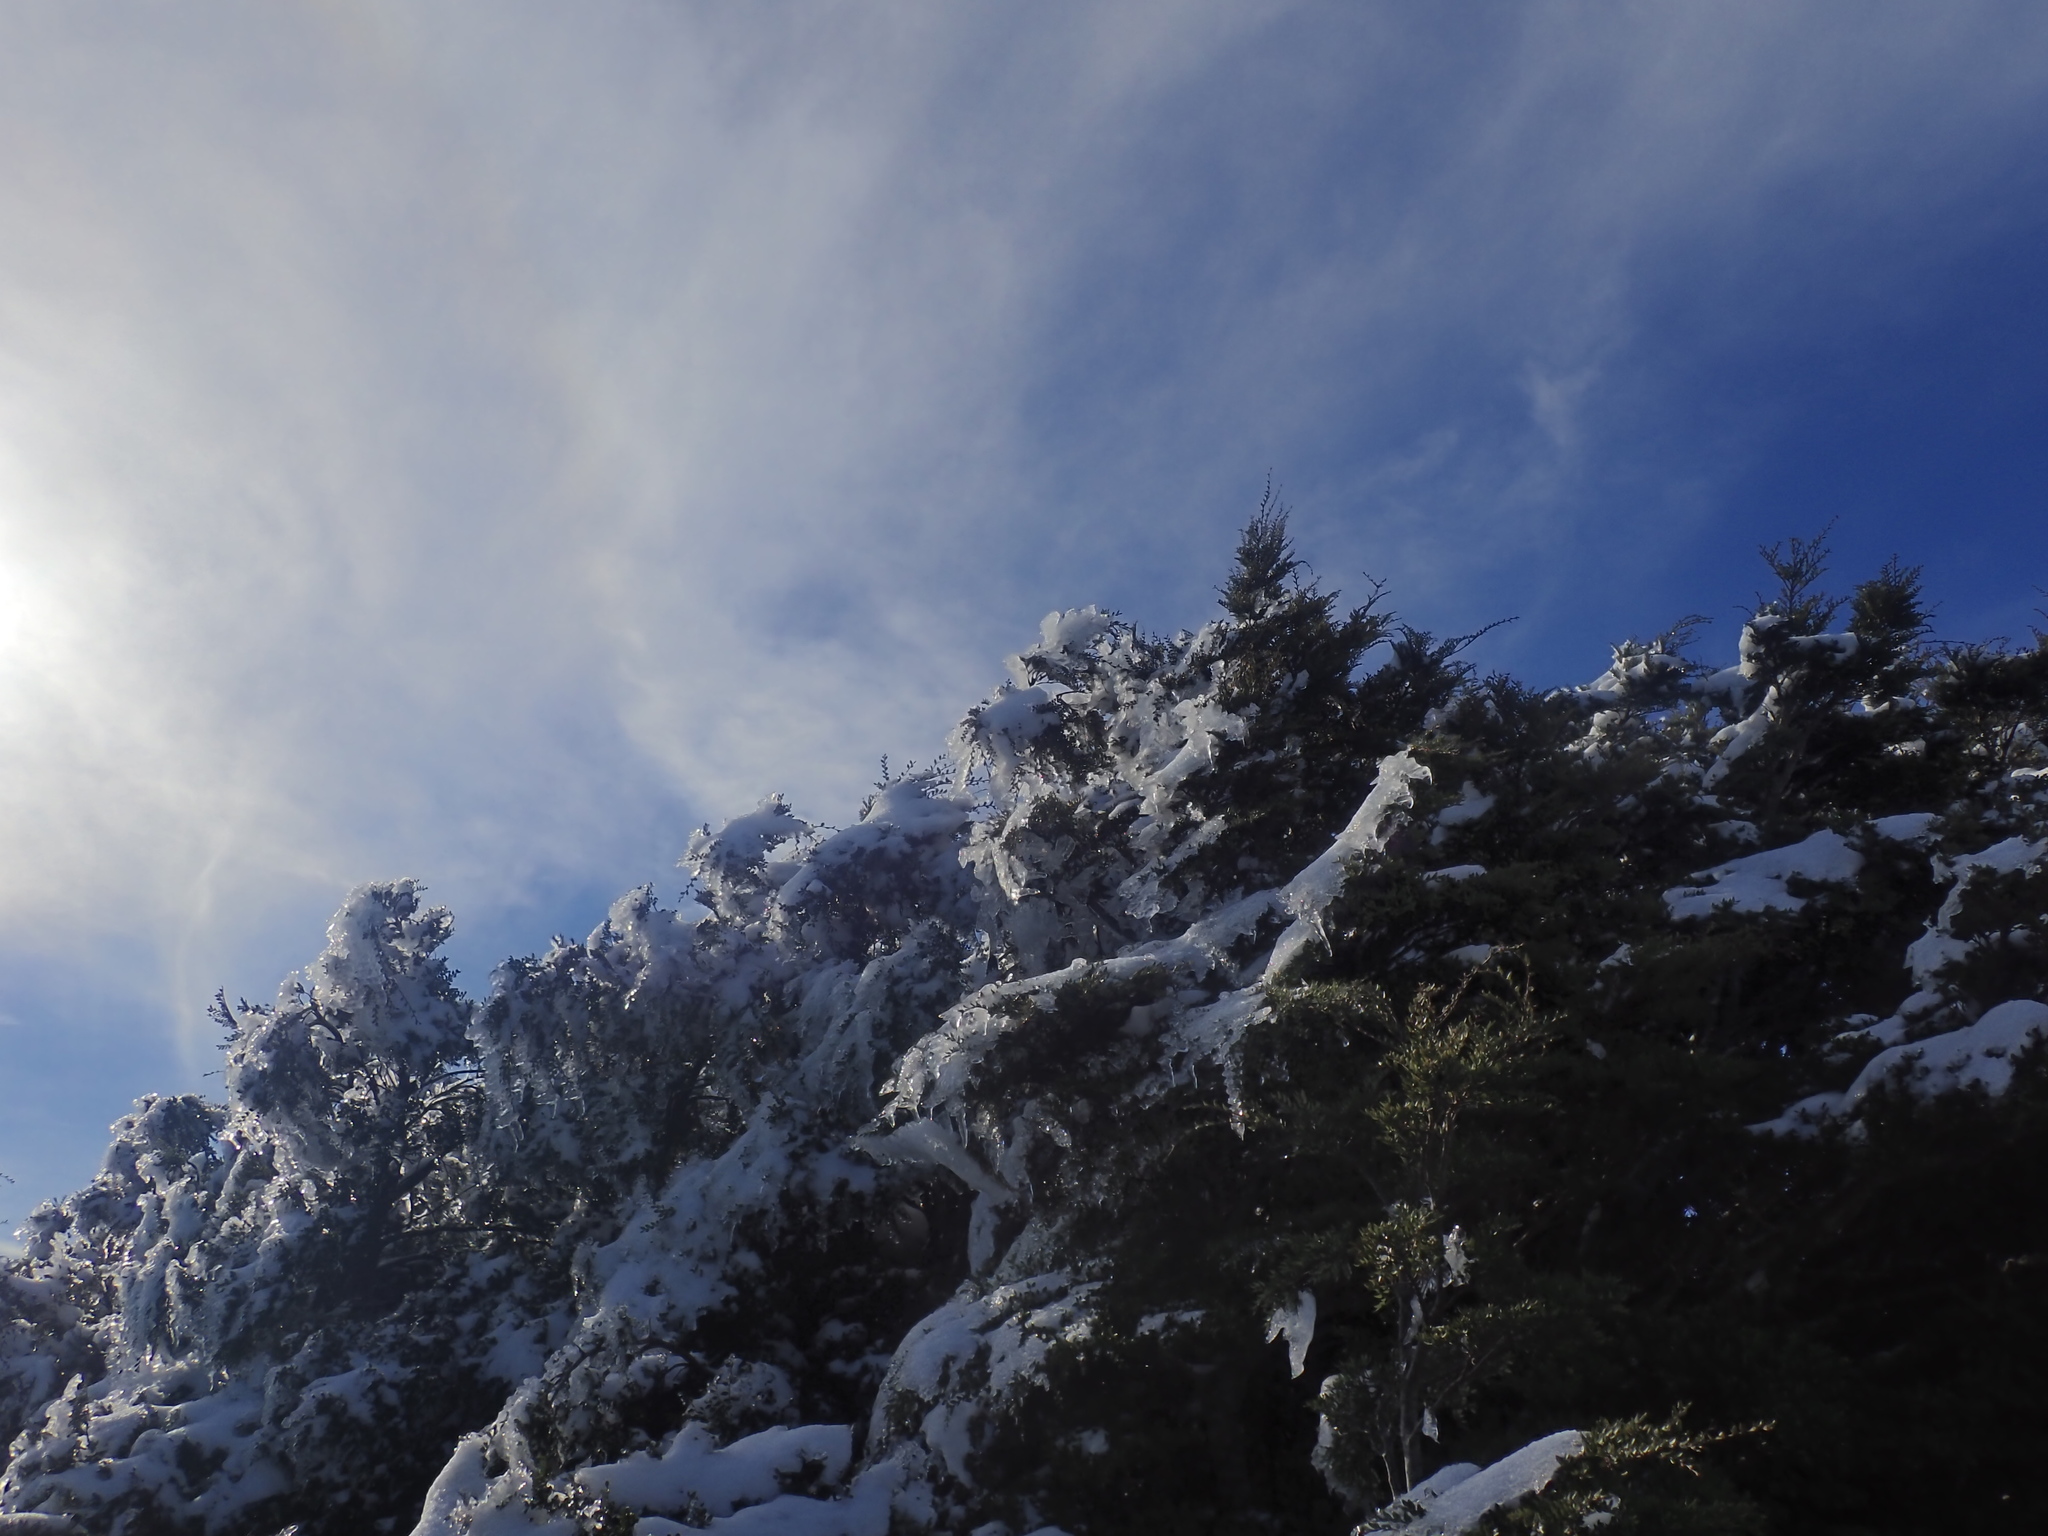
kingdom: Plantae
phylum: Tracheophyta
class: Magnoliopsida
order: Fagales
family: Nothofagaceae
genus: Nothofagus
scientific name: Nothofagus cliffortioides
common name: Mountain beech
